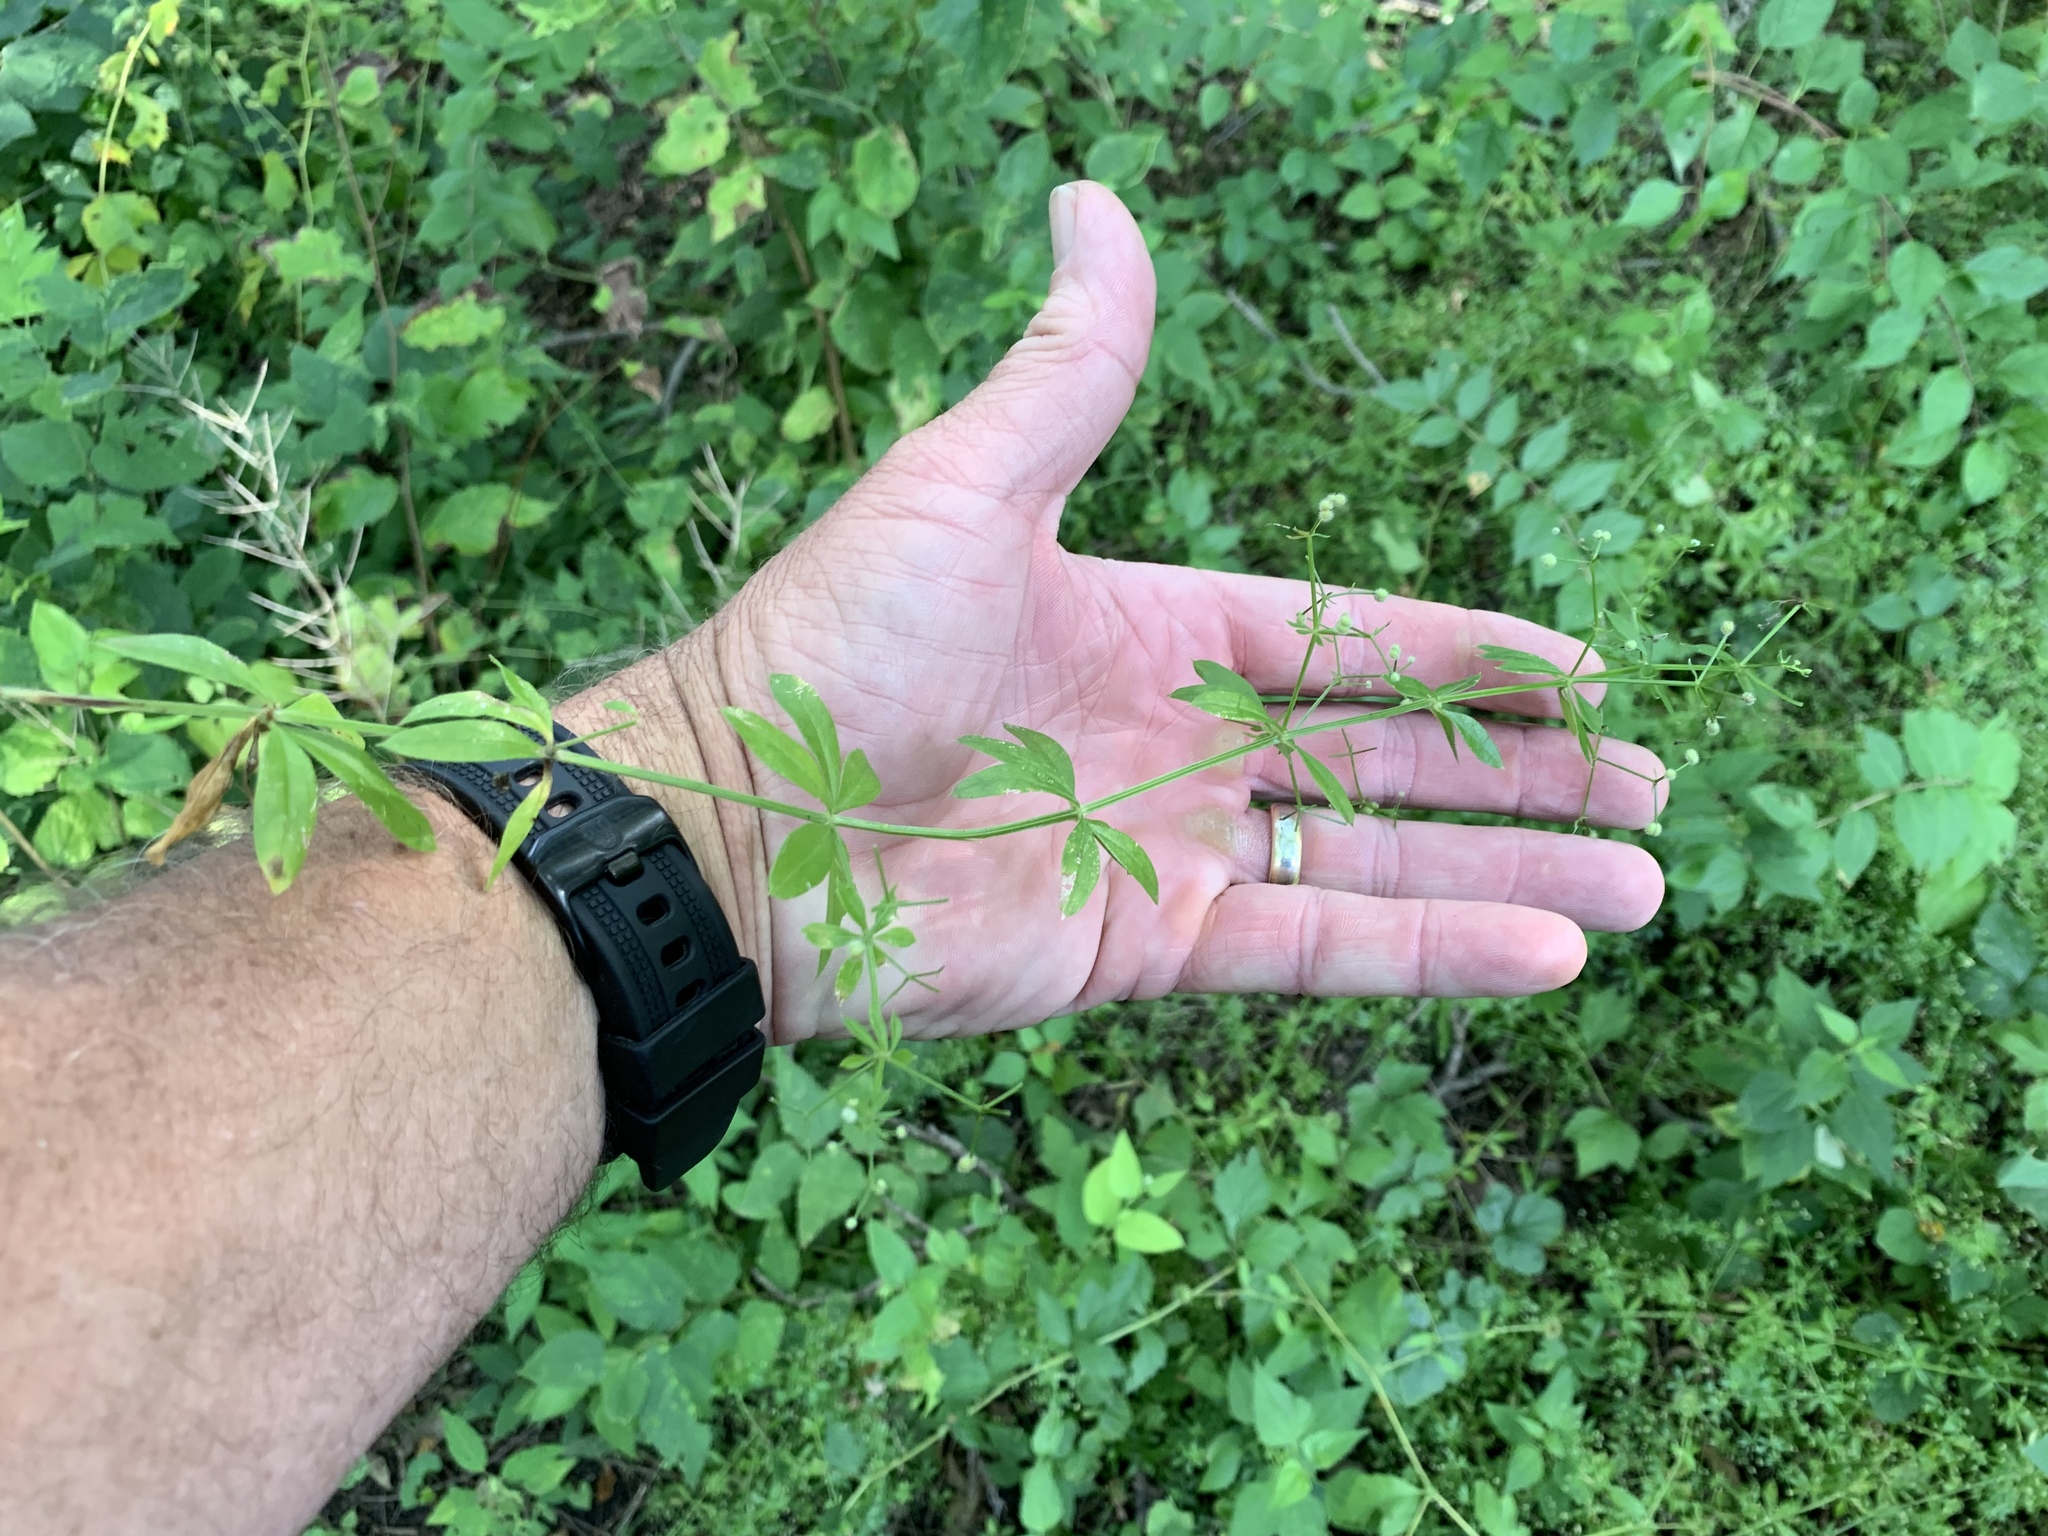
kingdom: Plantae
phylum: Tracheophyta
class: Magnoliopsida
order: Gentianales
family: Rubiaceae
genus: Galium
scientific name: Galium triflorum
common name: Fragrant bedstraw
